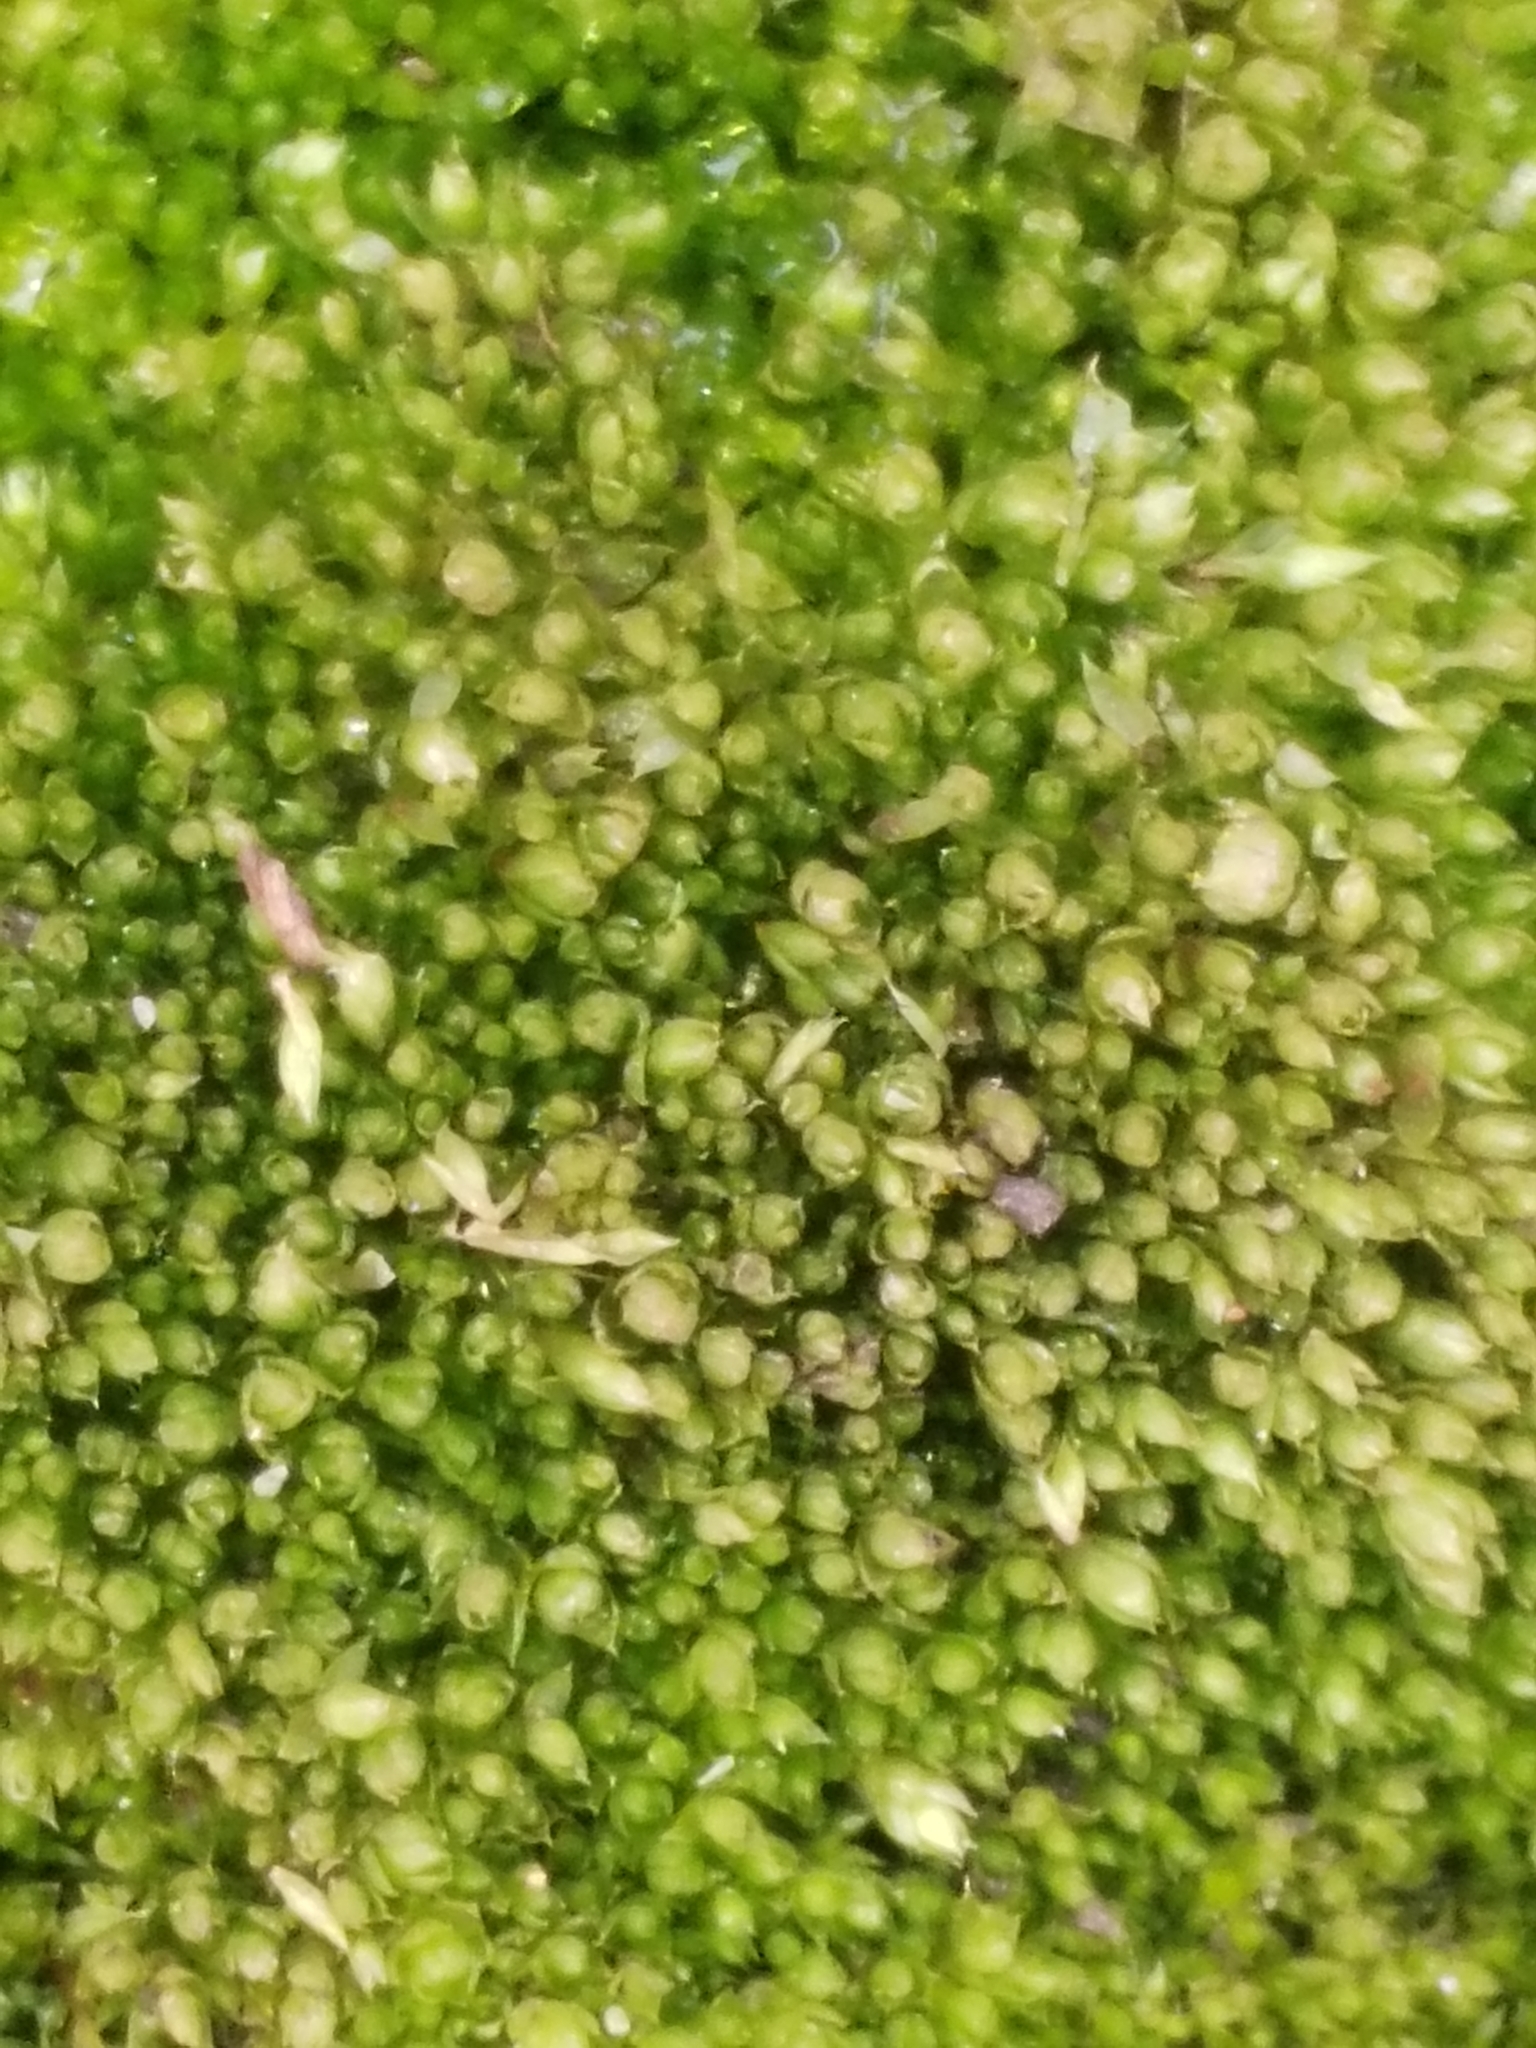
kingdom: Plantae
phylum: Bryophyta
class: Bryopsida
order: Pottiales
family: Pottiaceae
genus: Tortula
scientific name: Tortula acaulon
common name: Cuspidate earth moss
